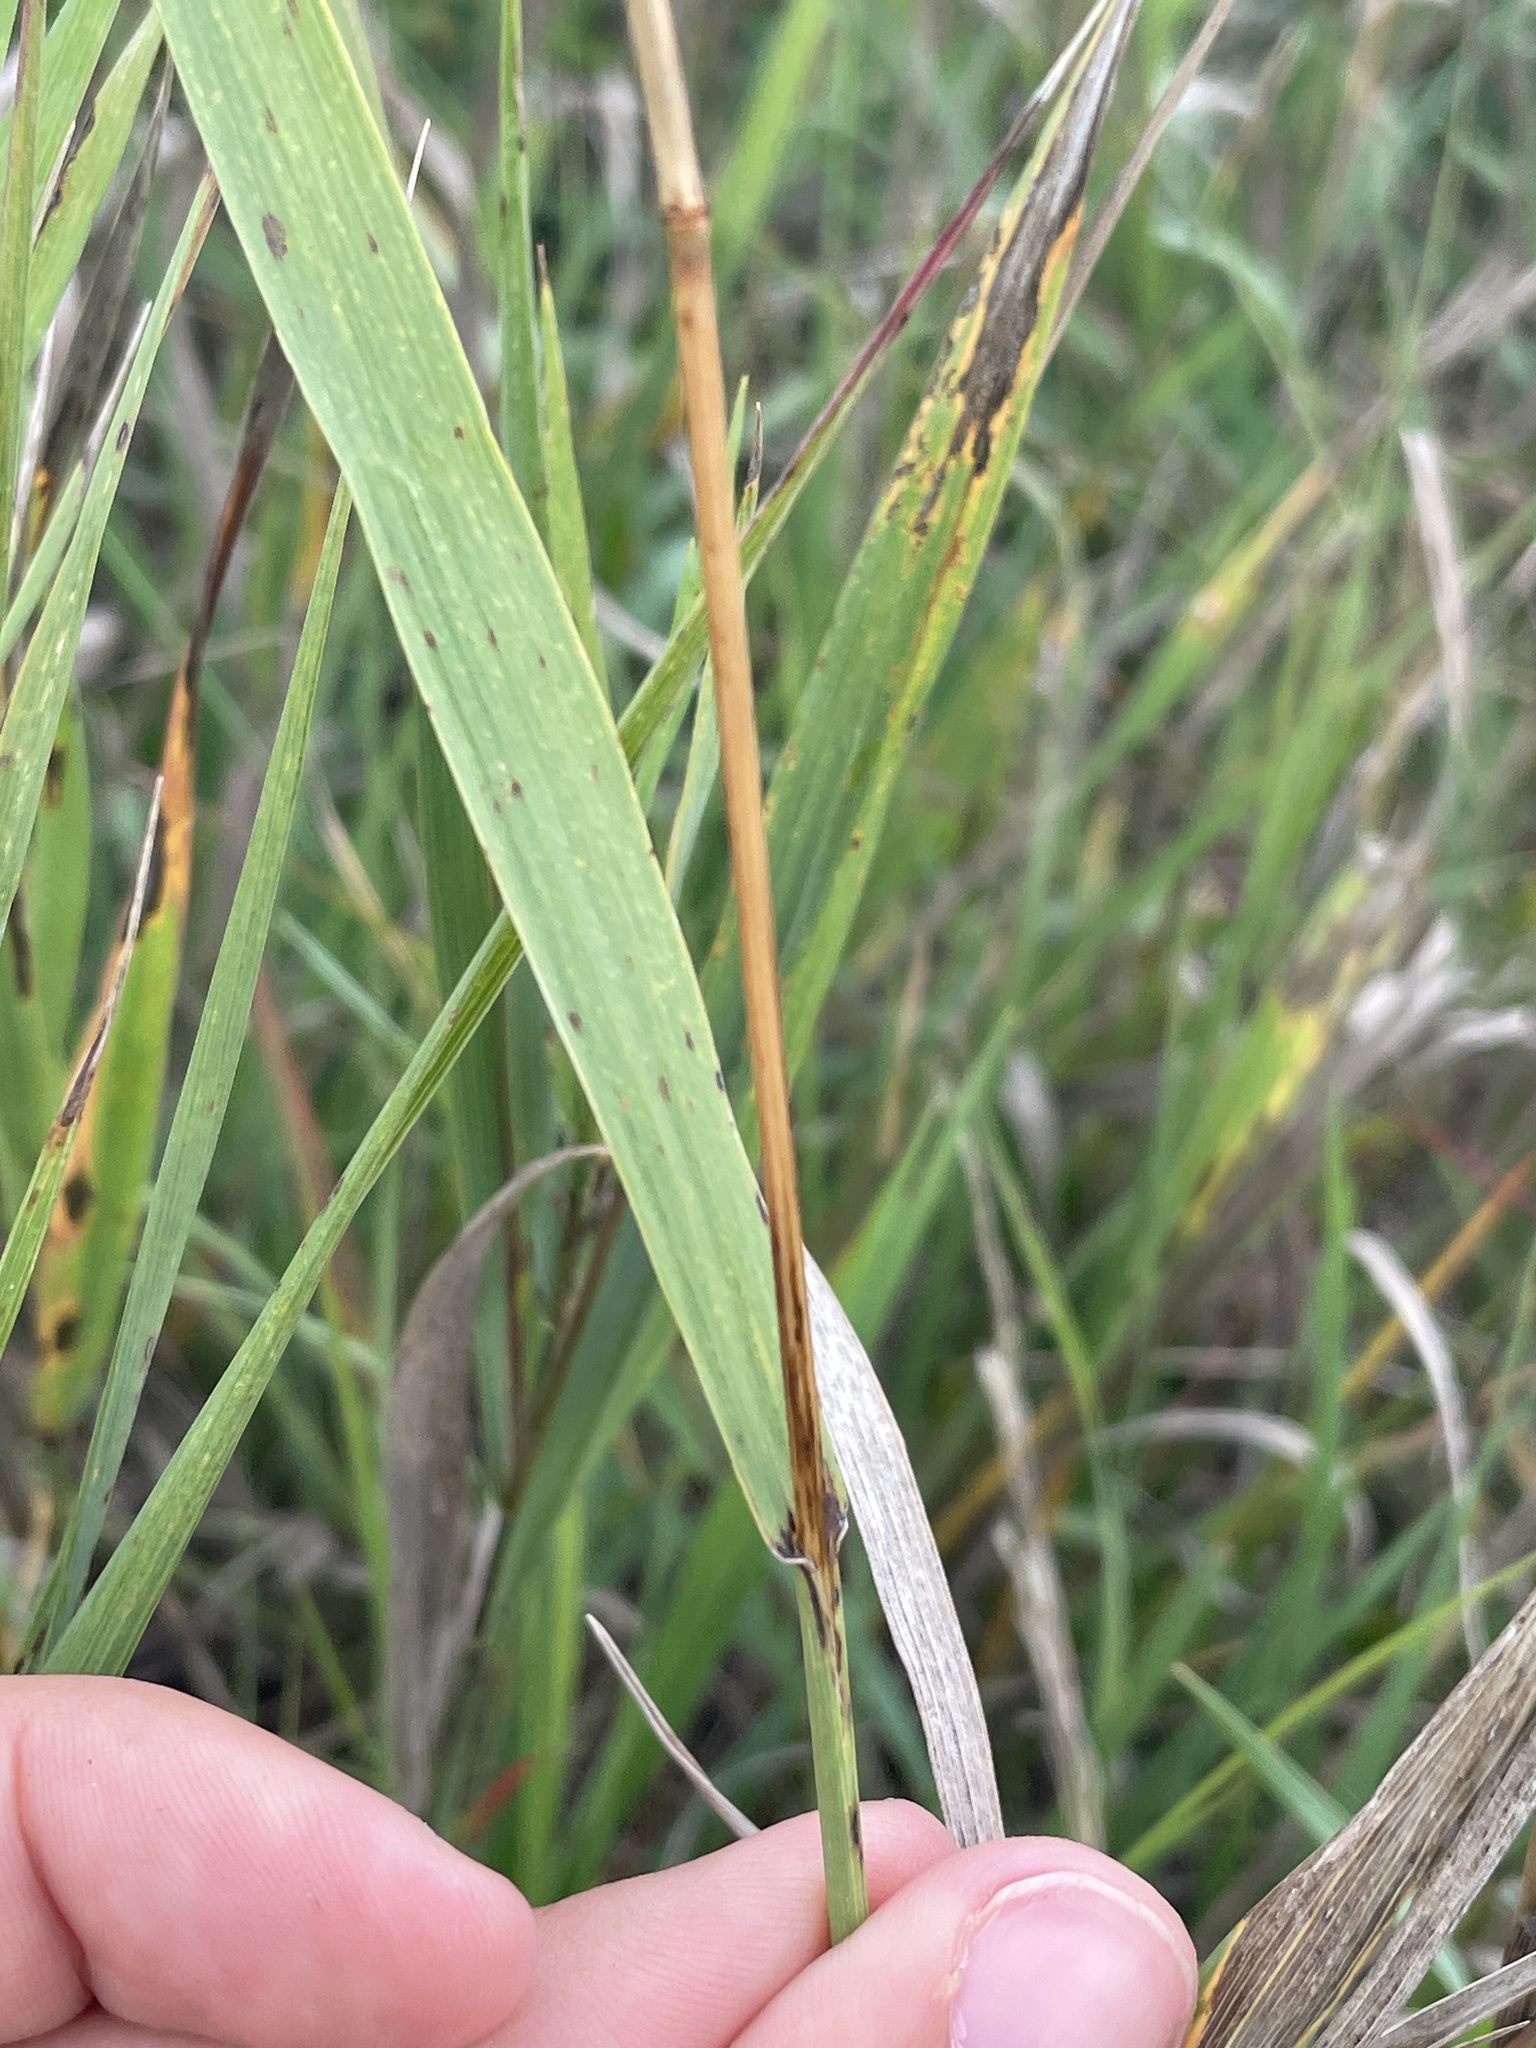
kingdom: Plantae
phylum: Tracheophyta
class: Liliopsida
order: Poales
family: Poaceae
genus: Bromus
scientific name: Bromus inermis
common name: Smooth brome
